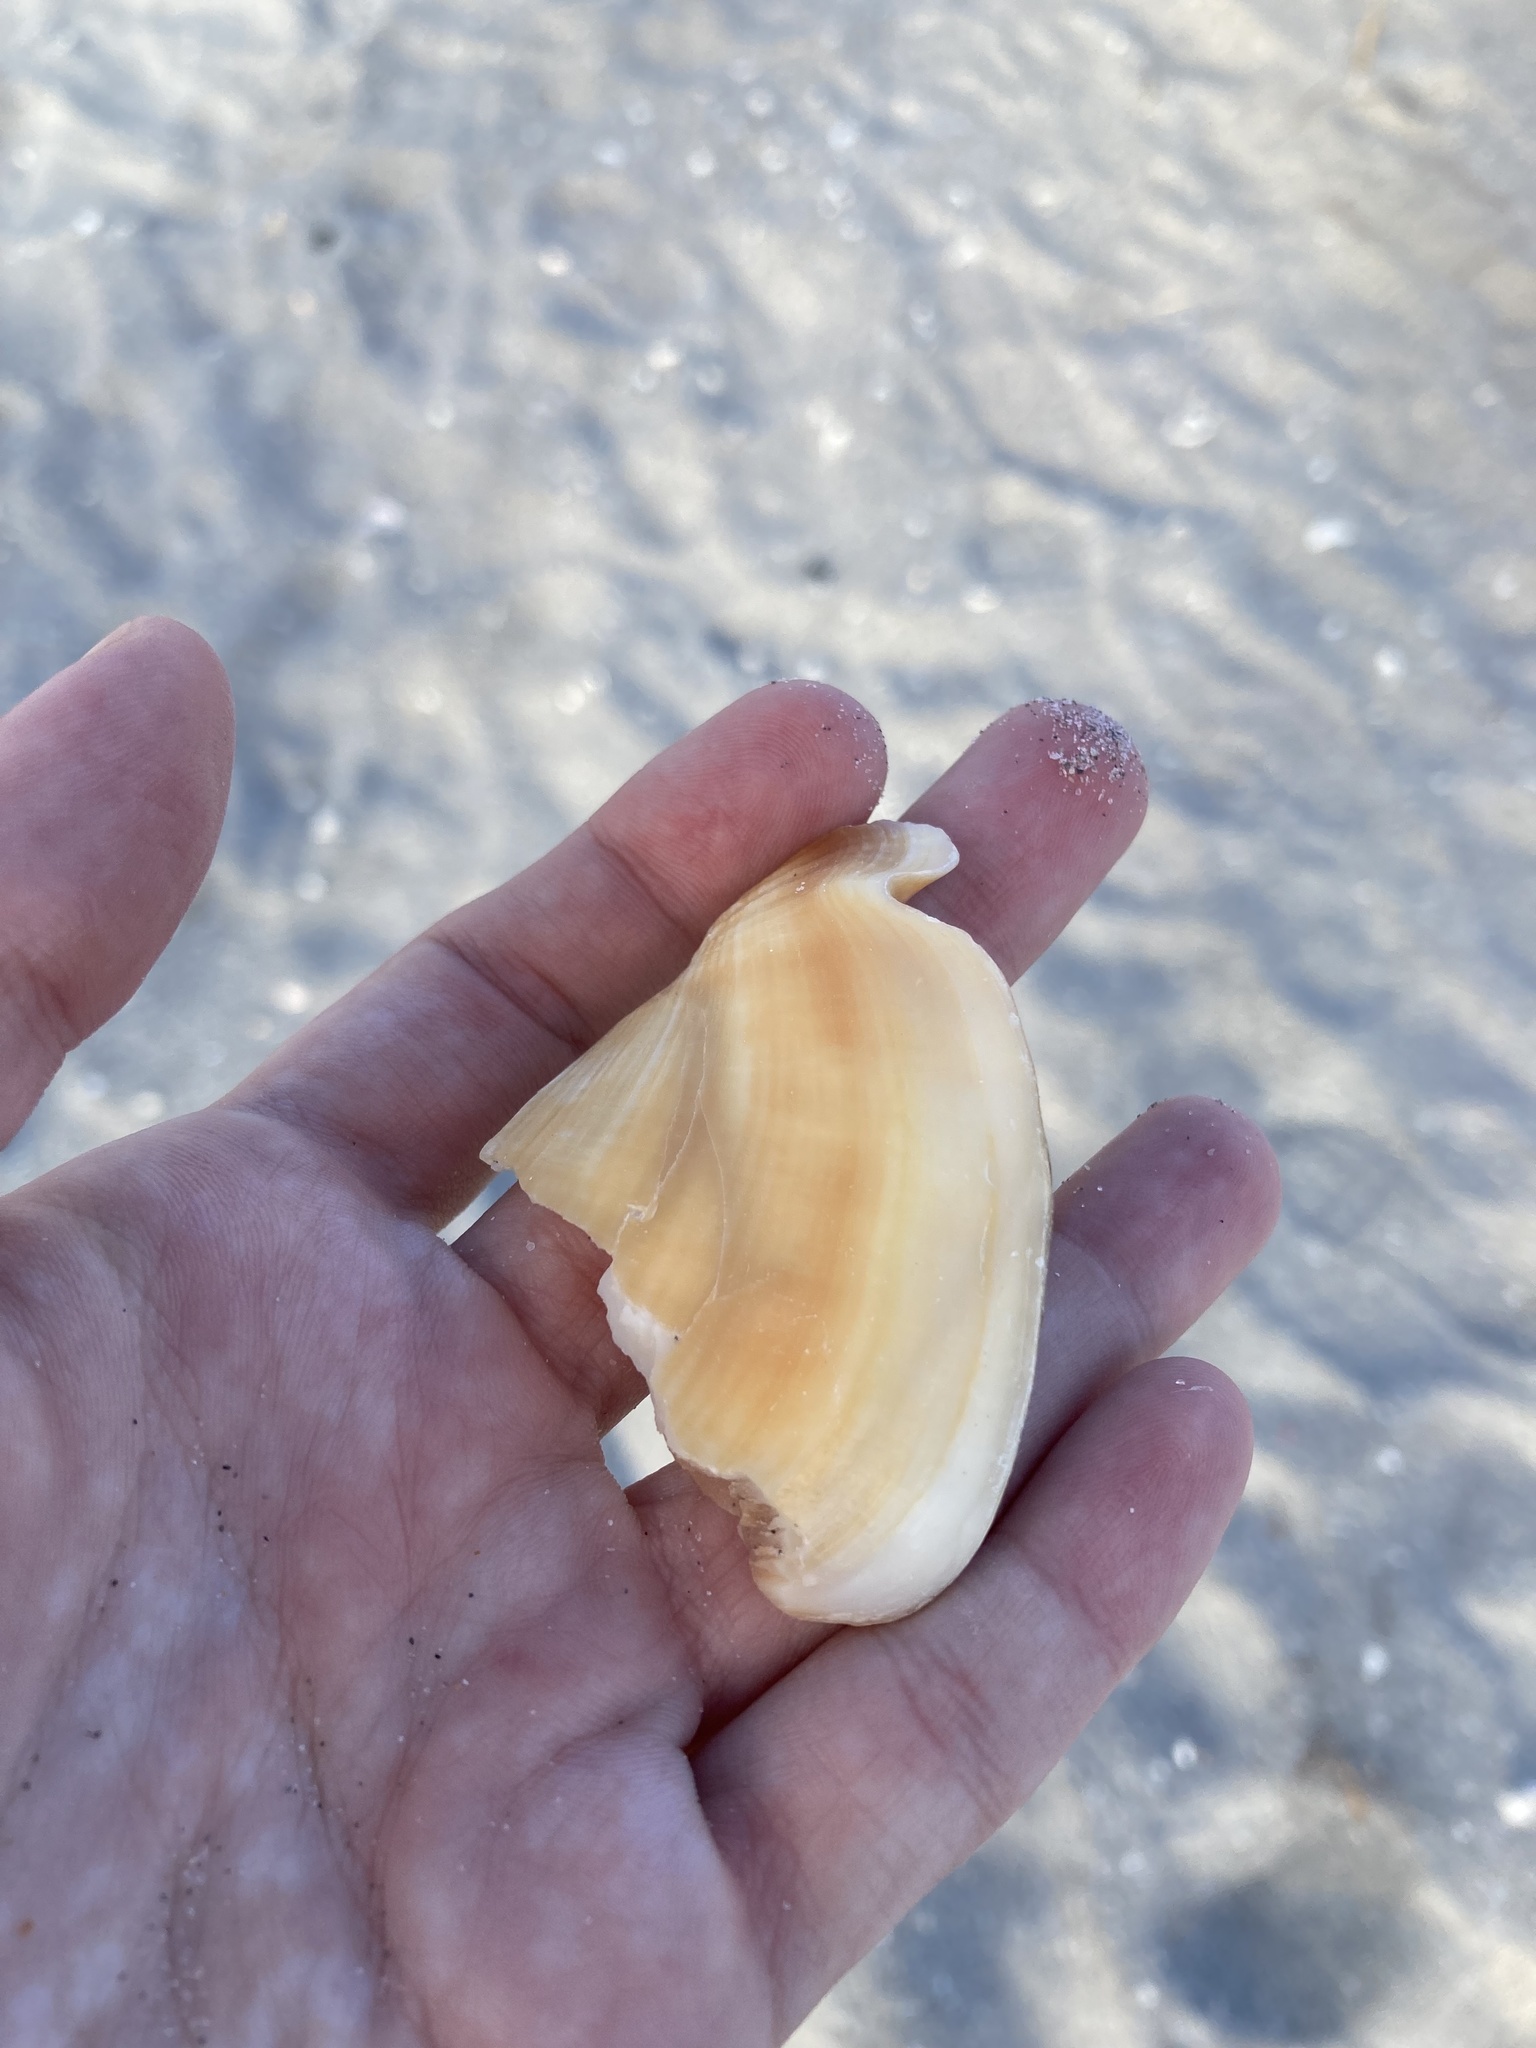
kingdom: Animalia
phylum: Mollusca
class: Gastropoda
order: Littorinimorpha
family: Strombidae
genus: Strombus
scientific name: Strombus alatus
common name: Florida fighting conch
